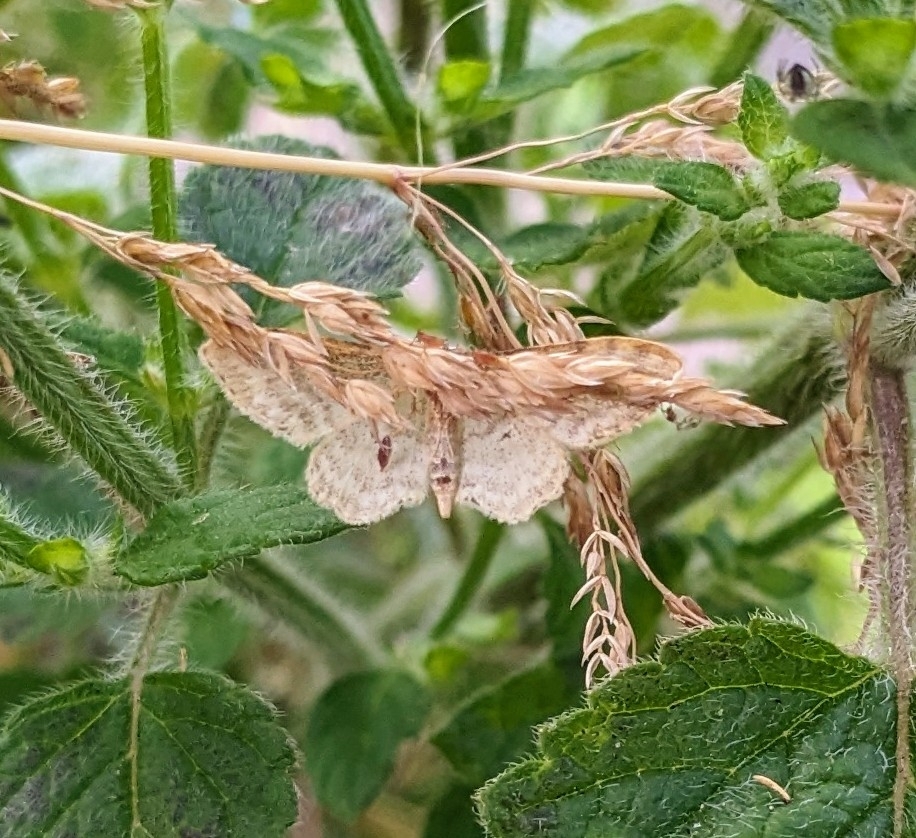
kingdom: Animalia
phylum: Arthropoda
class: Insecta
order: Lepidoptera
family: Geometridae
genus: Idaea
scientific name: Idaea fuscovenosa
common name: Dwarf cream wave
